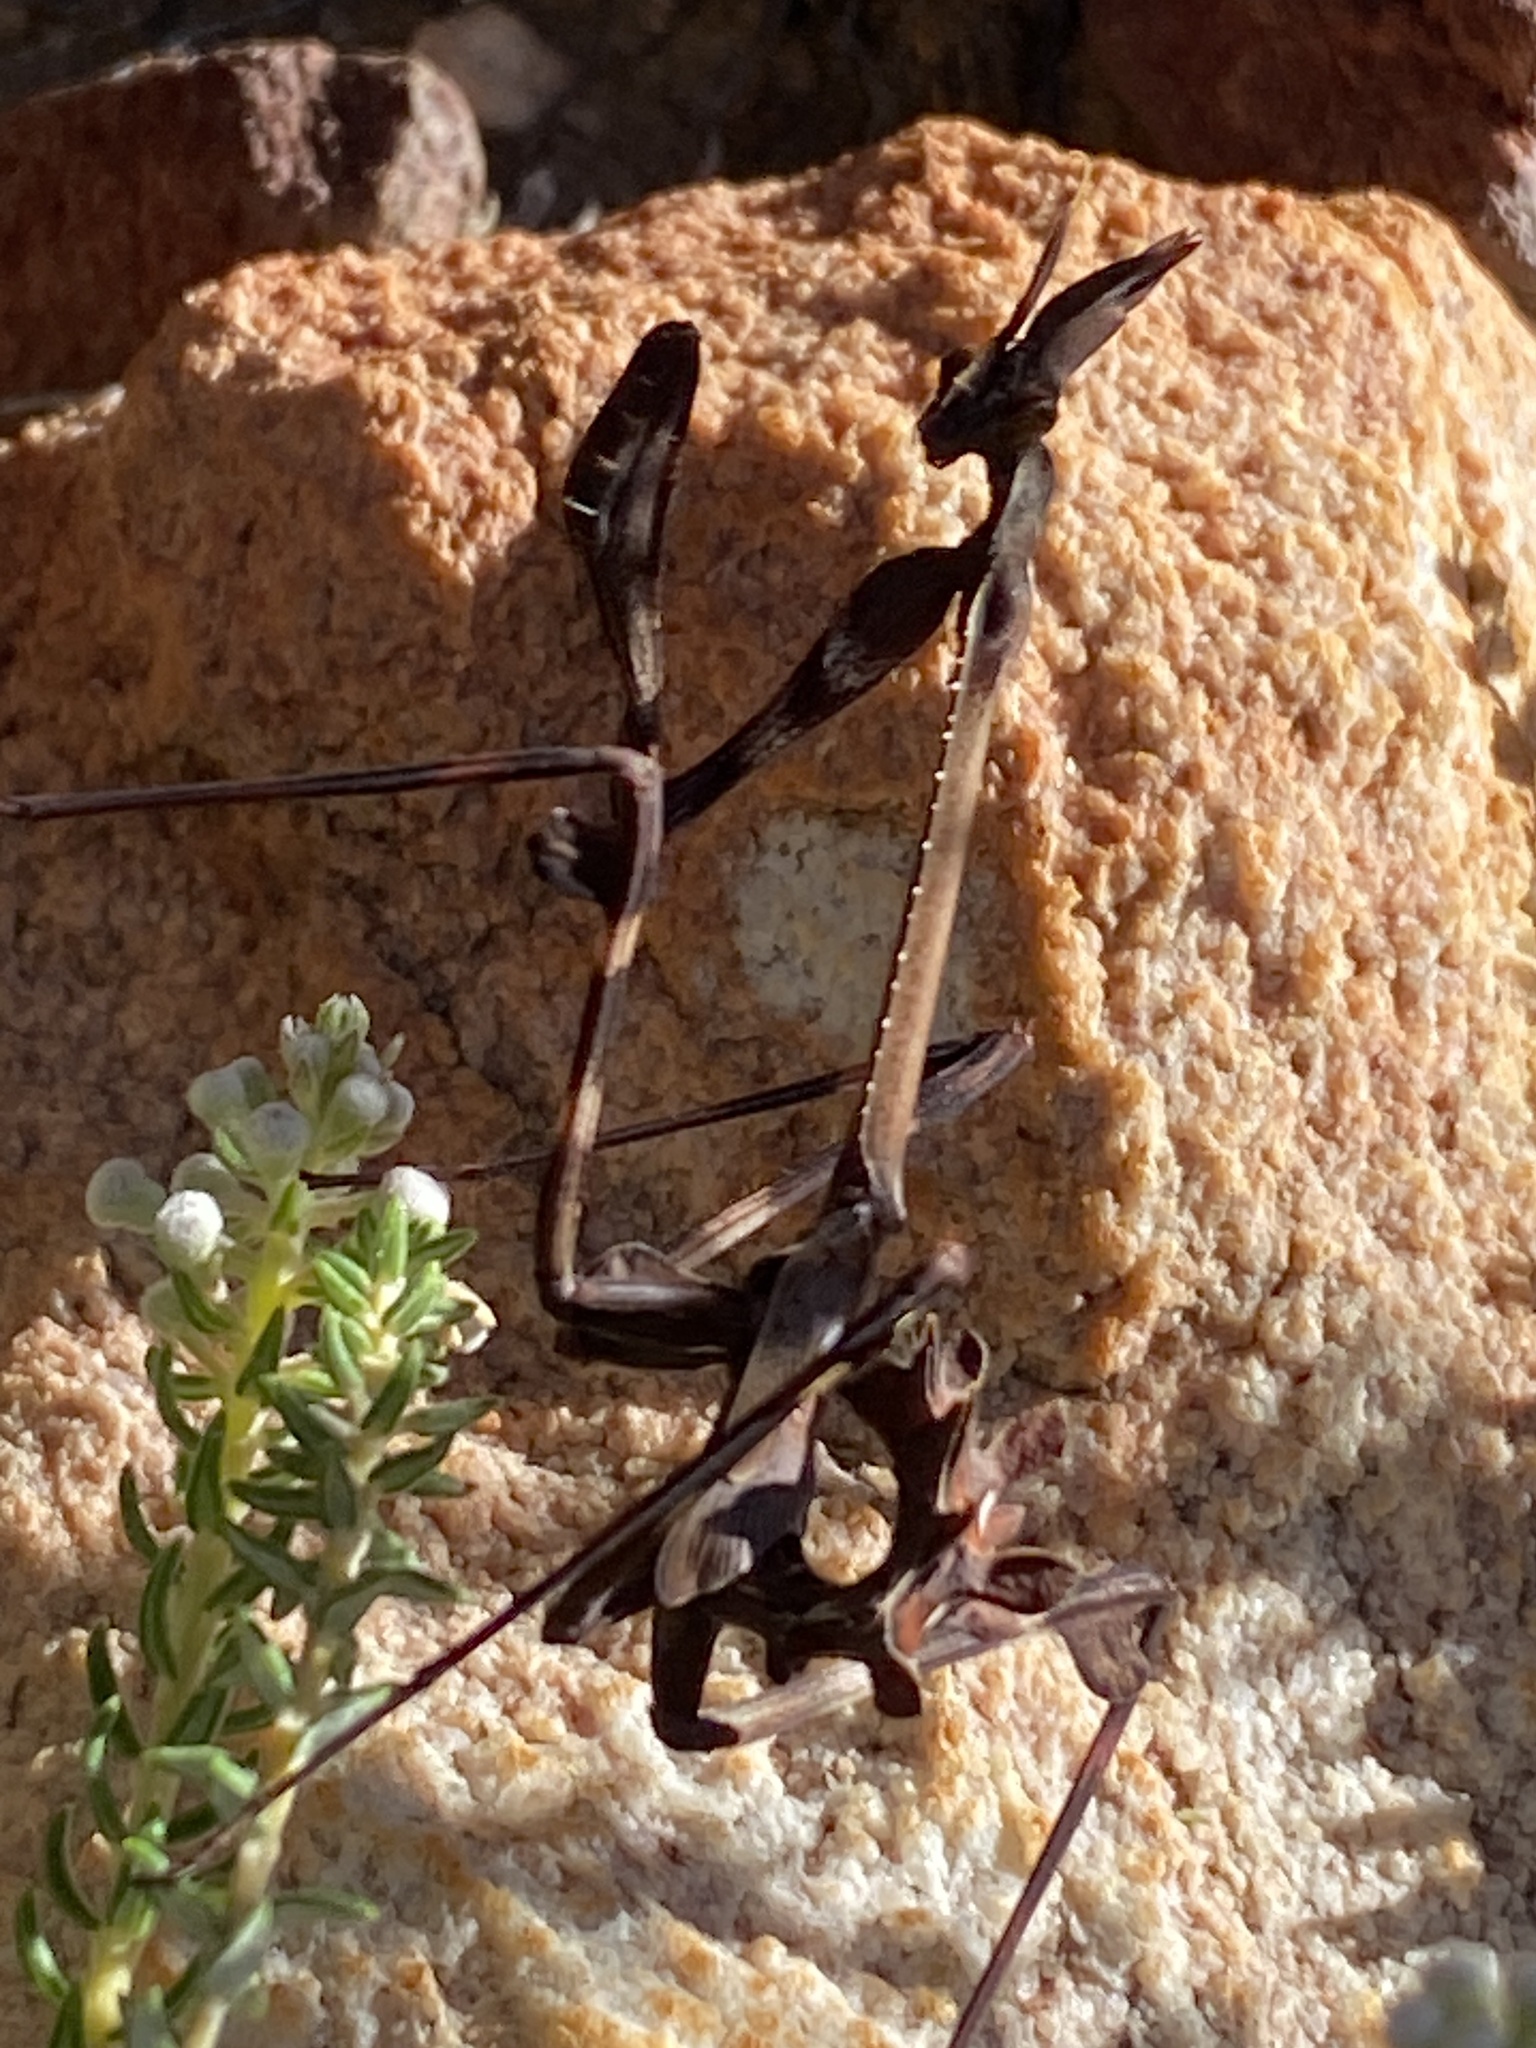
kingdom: Animalia
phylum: Arthropoda
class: Insecta
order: Mantodea
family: Empusidae
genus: Empusa
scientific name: Empusa binotata
